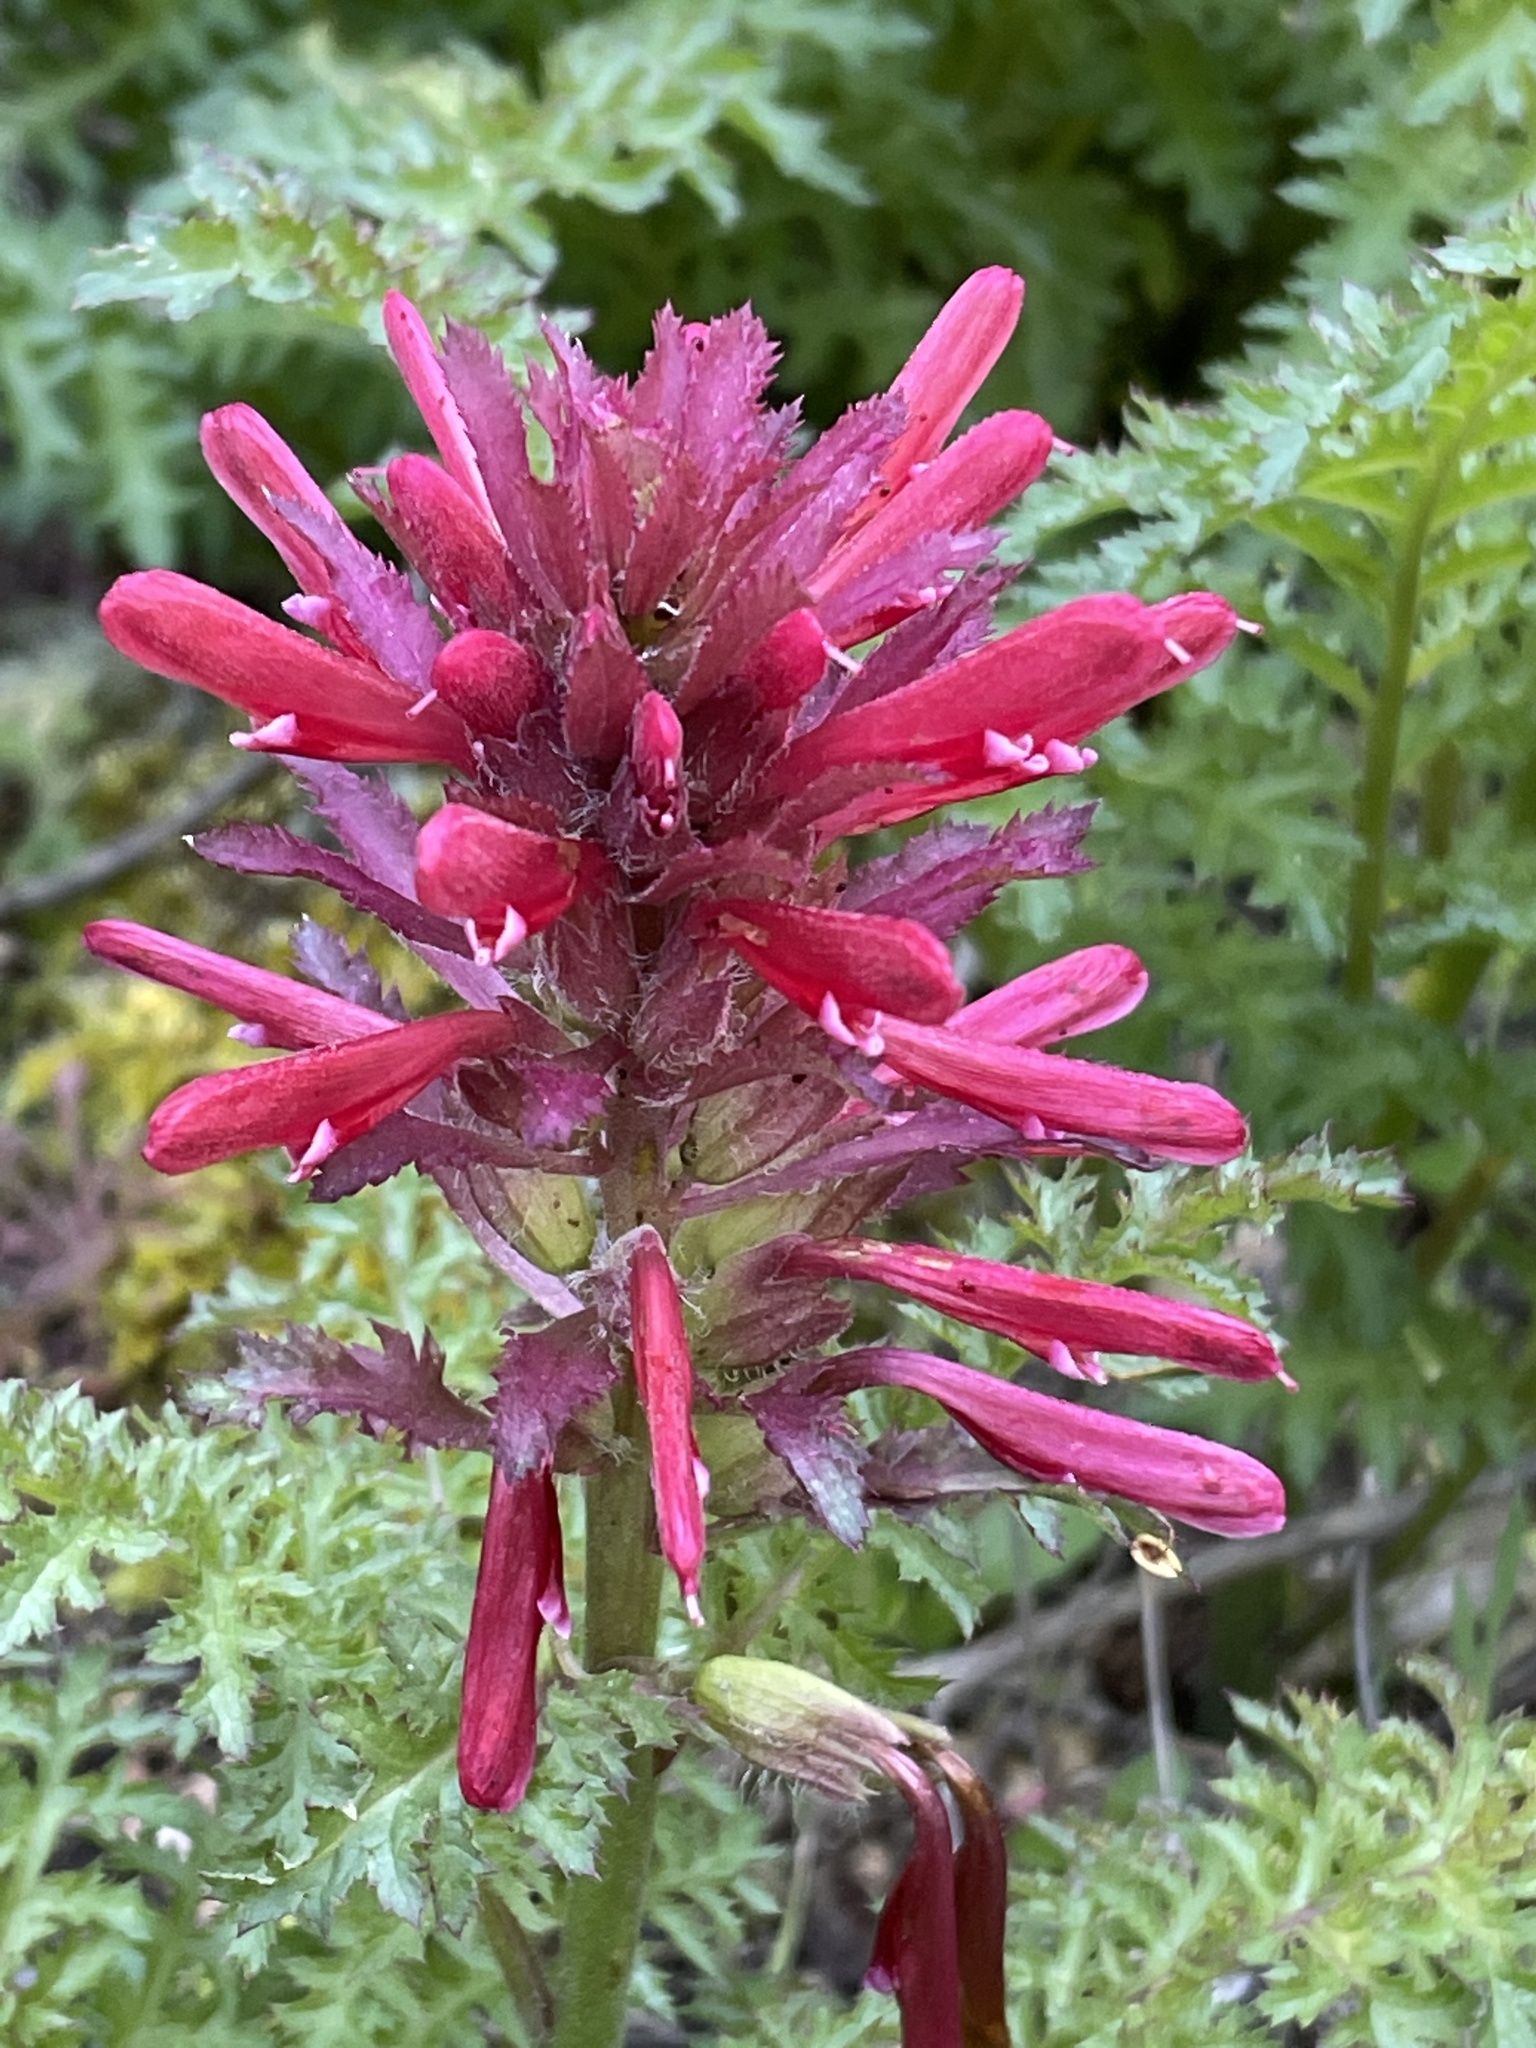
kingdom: Plantae
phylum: Tracheophyta
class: Magnoliopsida
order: Lamiales
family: Orobanchaceae
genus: Pedicularis
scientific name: Pedicularis densiflora
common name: Indian warrior
